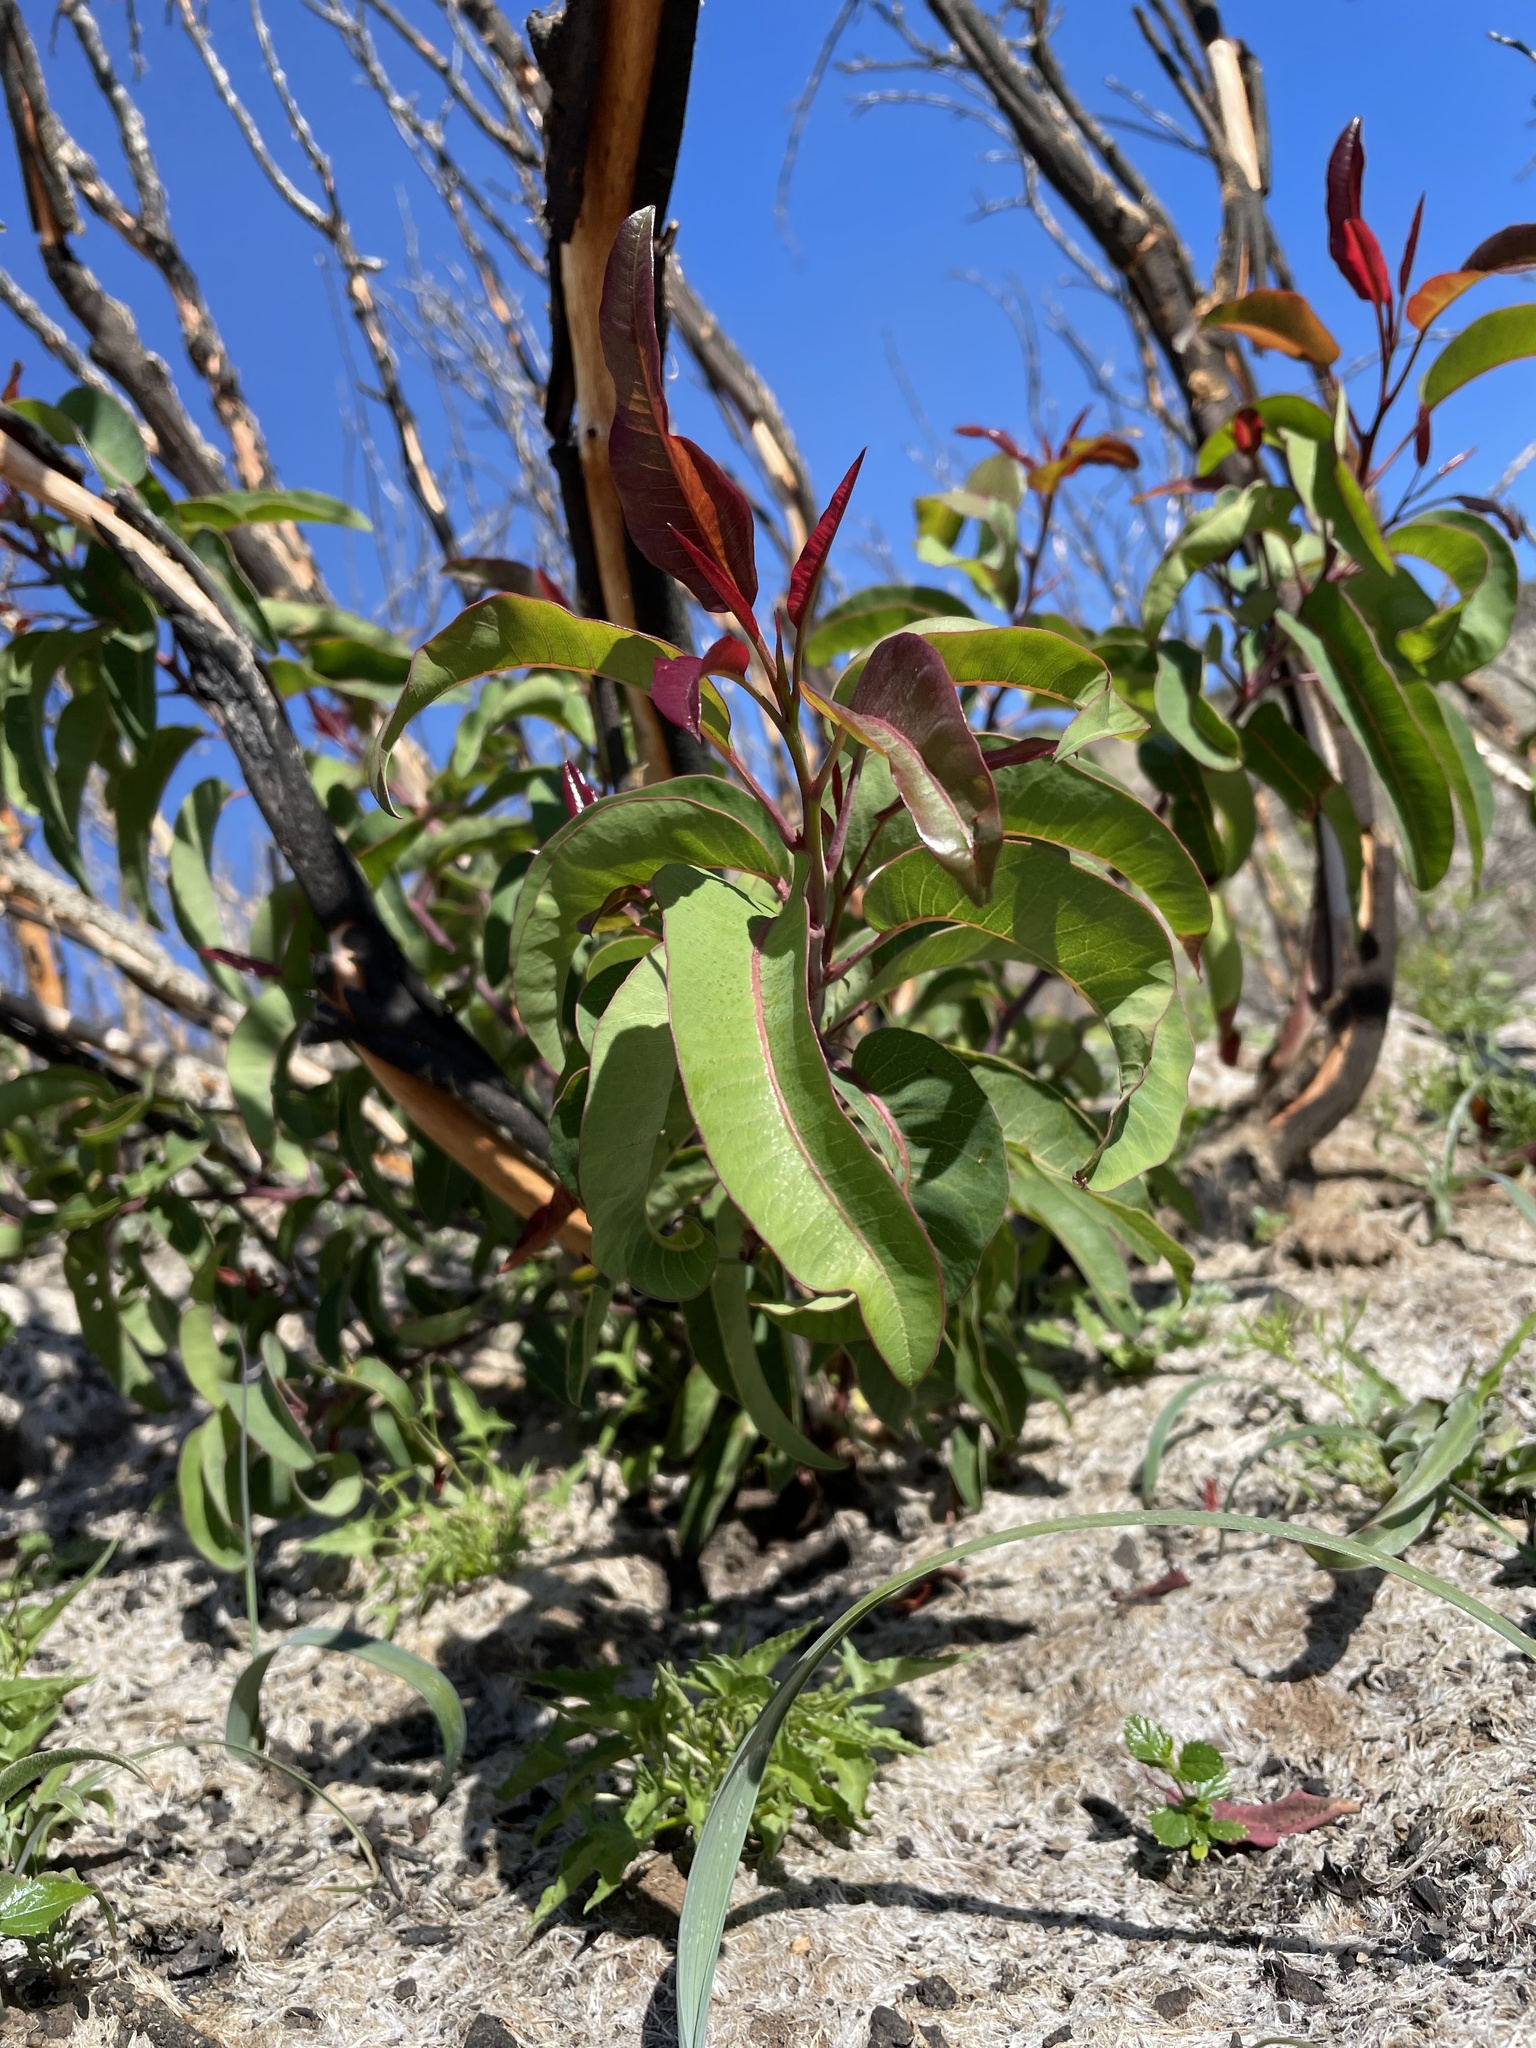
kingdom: Plantae
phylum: Tracheophyta
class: Magnoliopsida
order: Sapindales
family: Anacardiaceae
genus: Malosma
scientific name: Malosma laurina
